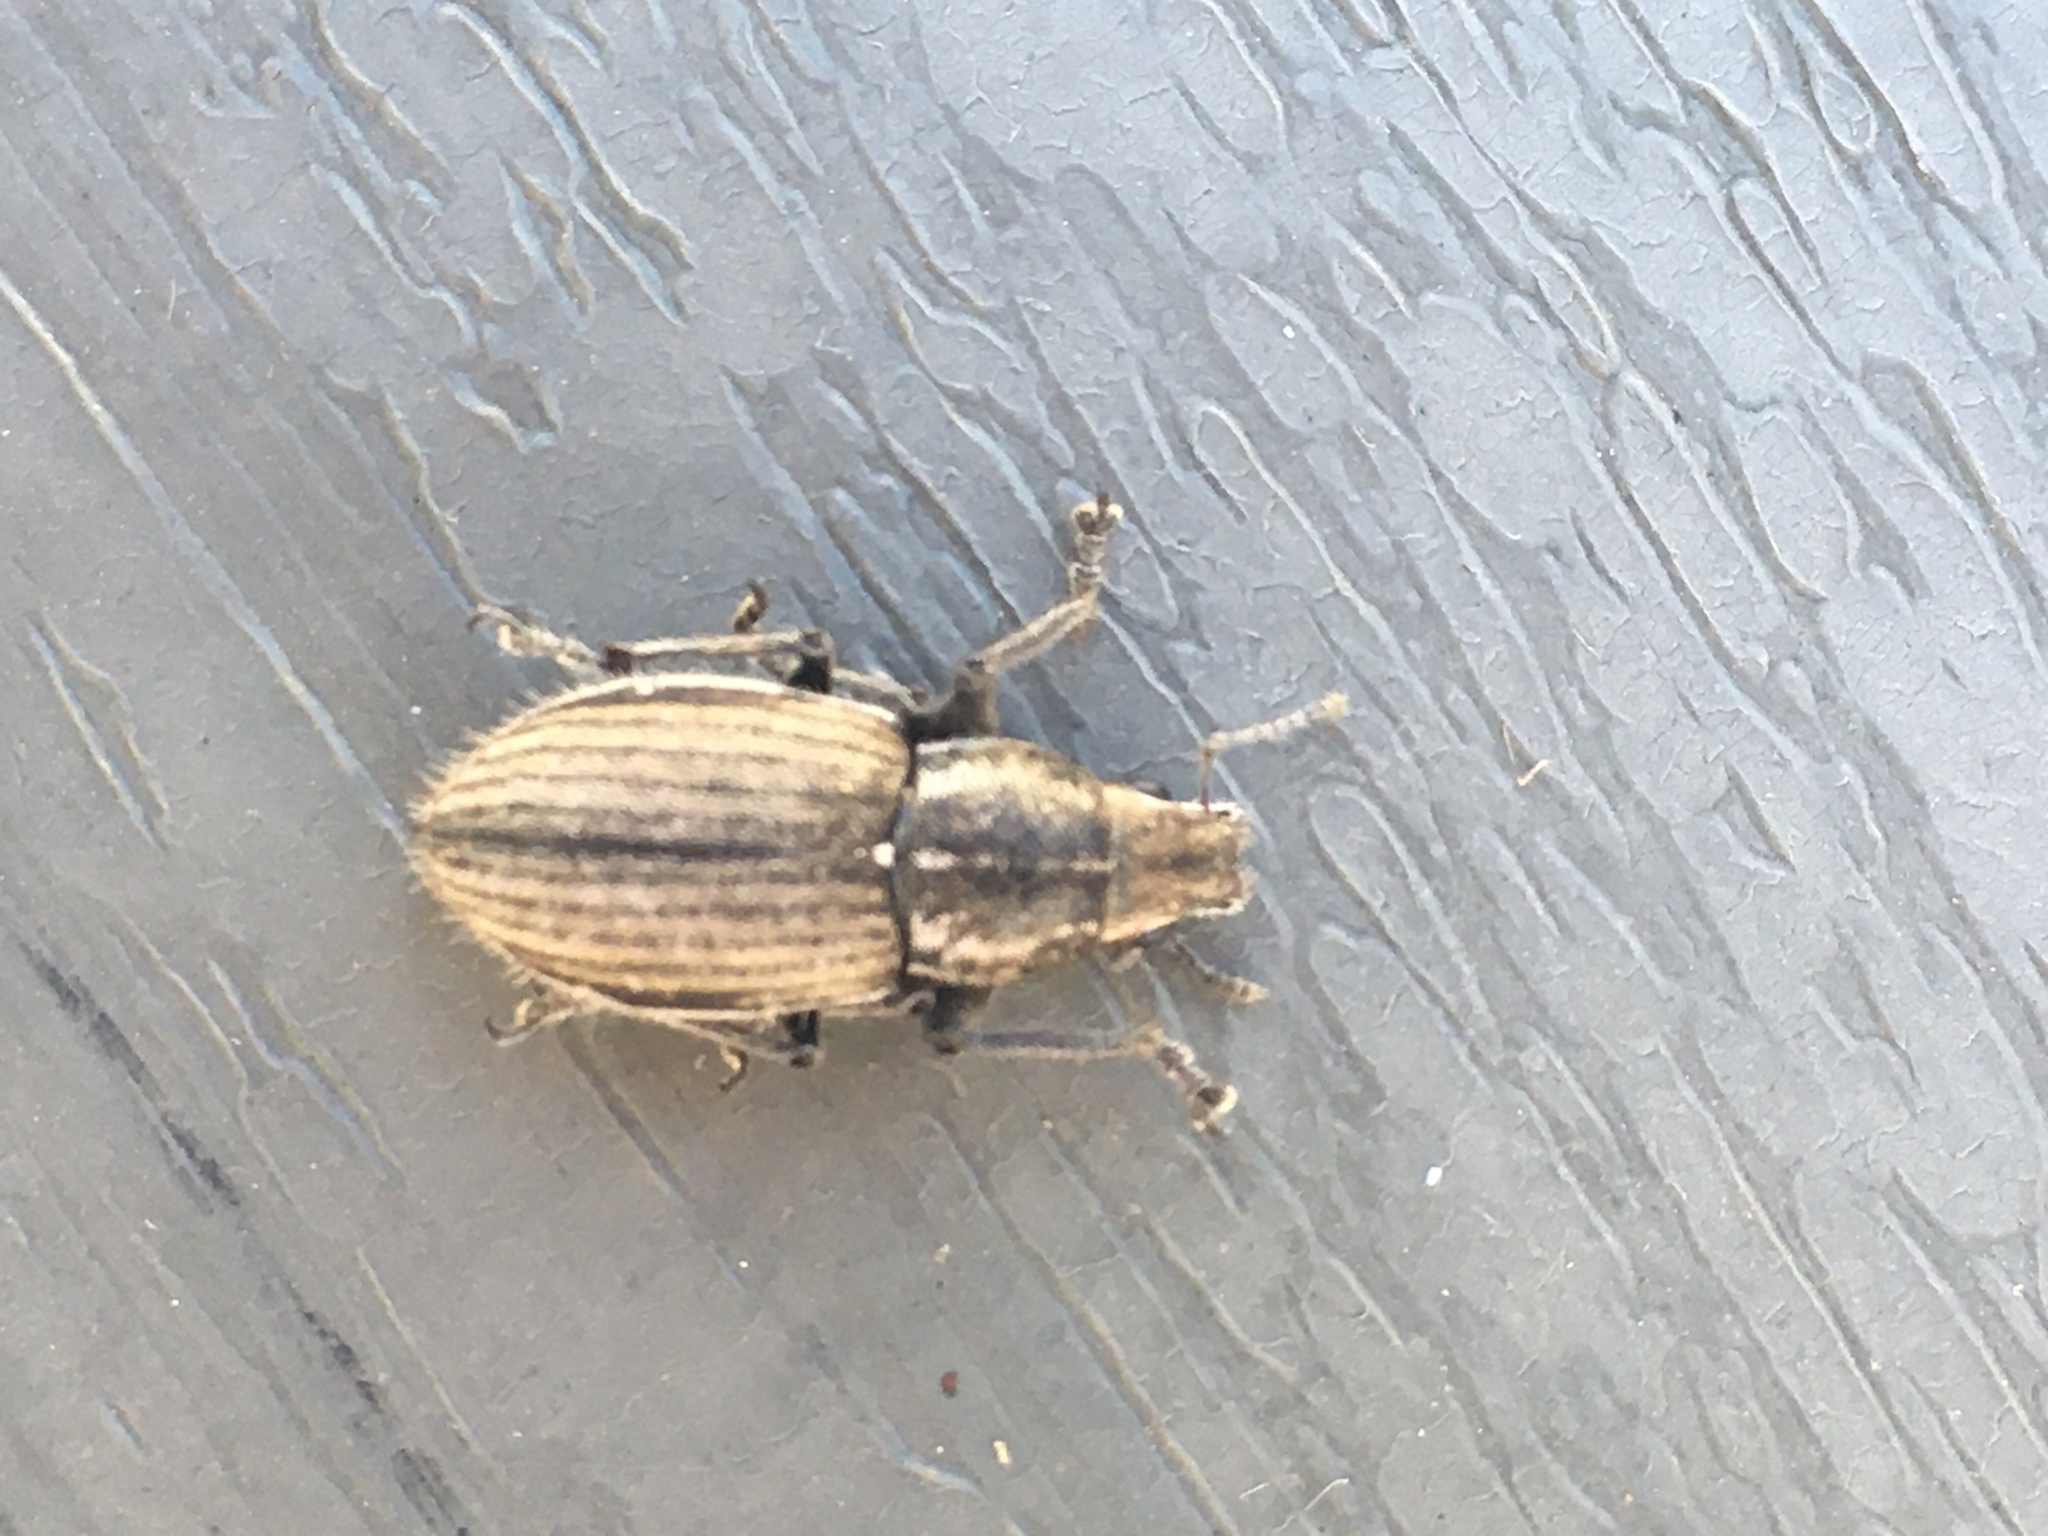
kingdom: Animalia
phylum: Arthropoda
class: Insecta
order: Coleoptera
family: Curculionidae
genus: Naupactus
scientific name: Naupactus leucoloma
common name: Whitefringed beetle
